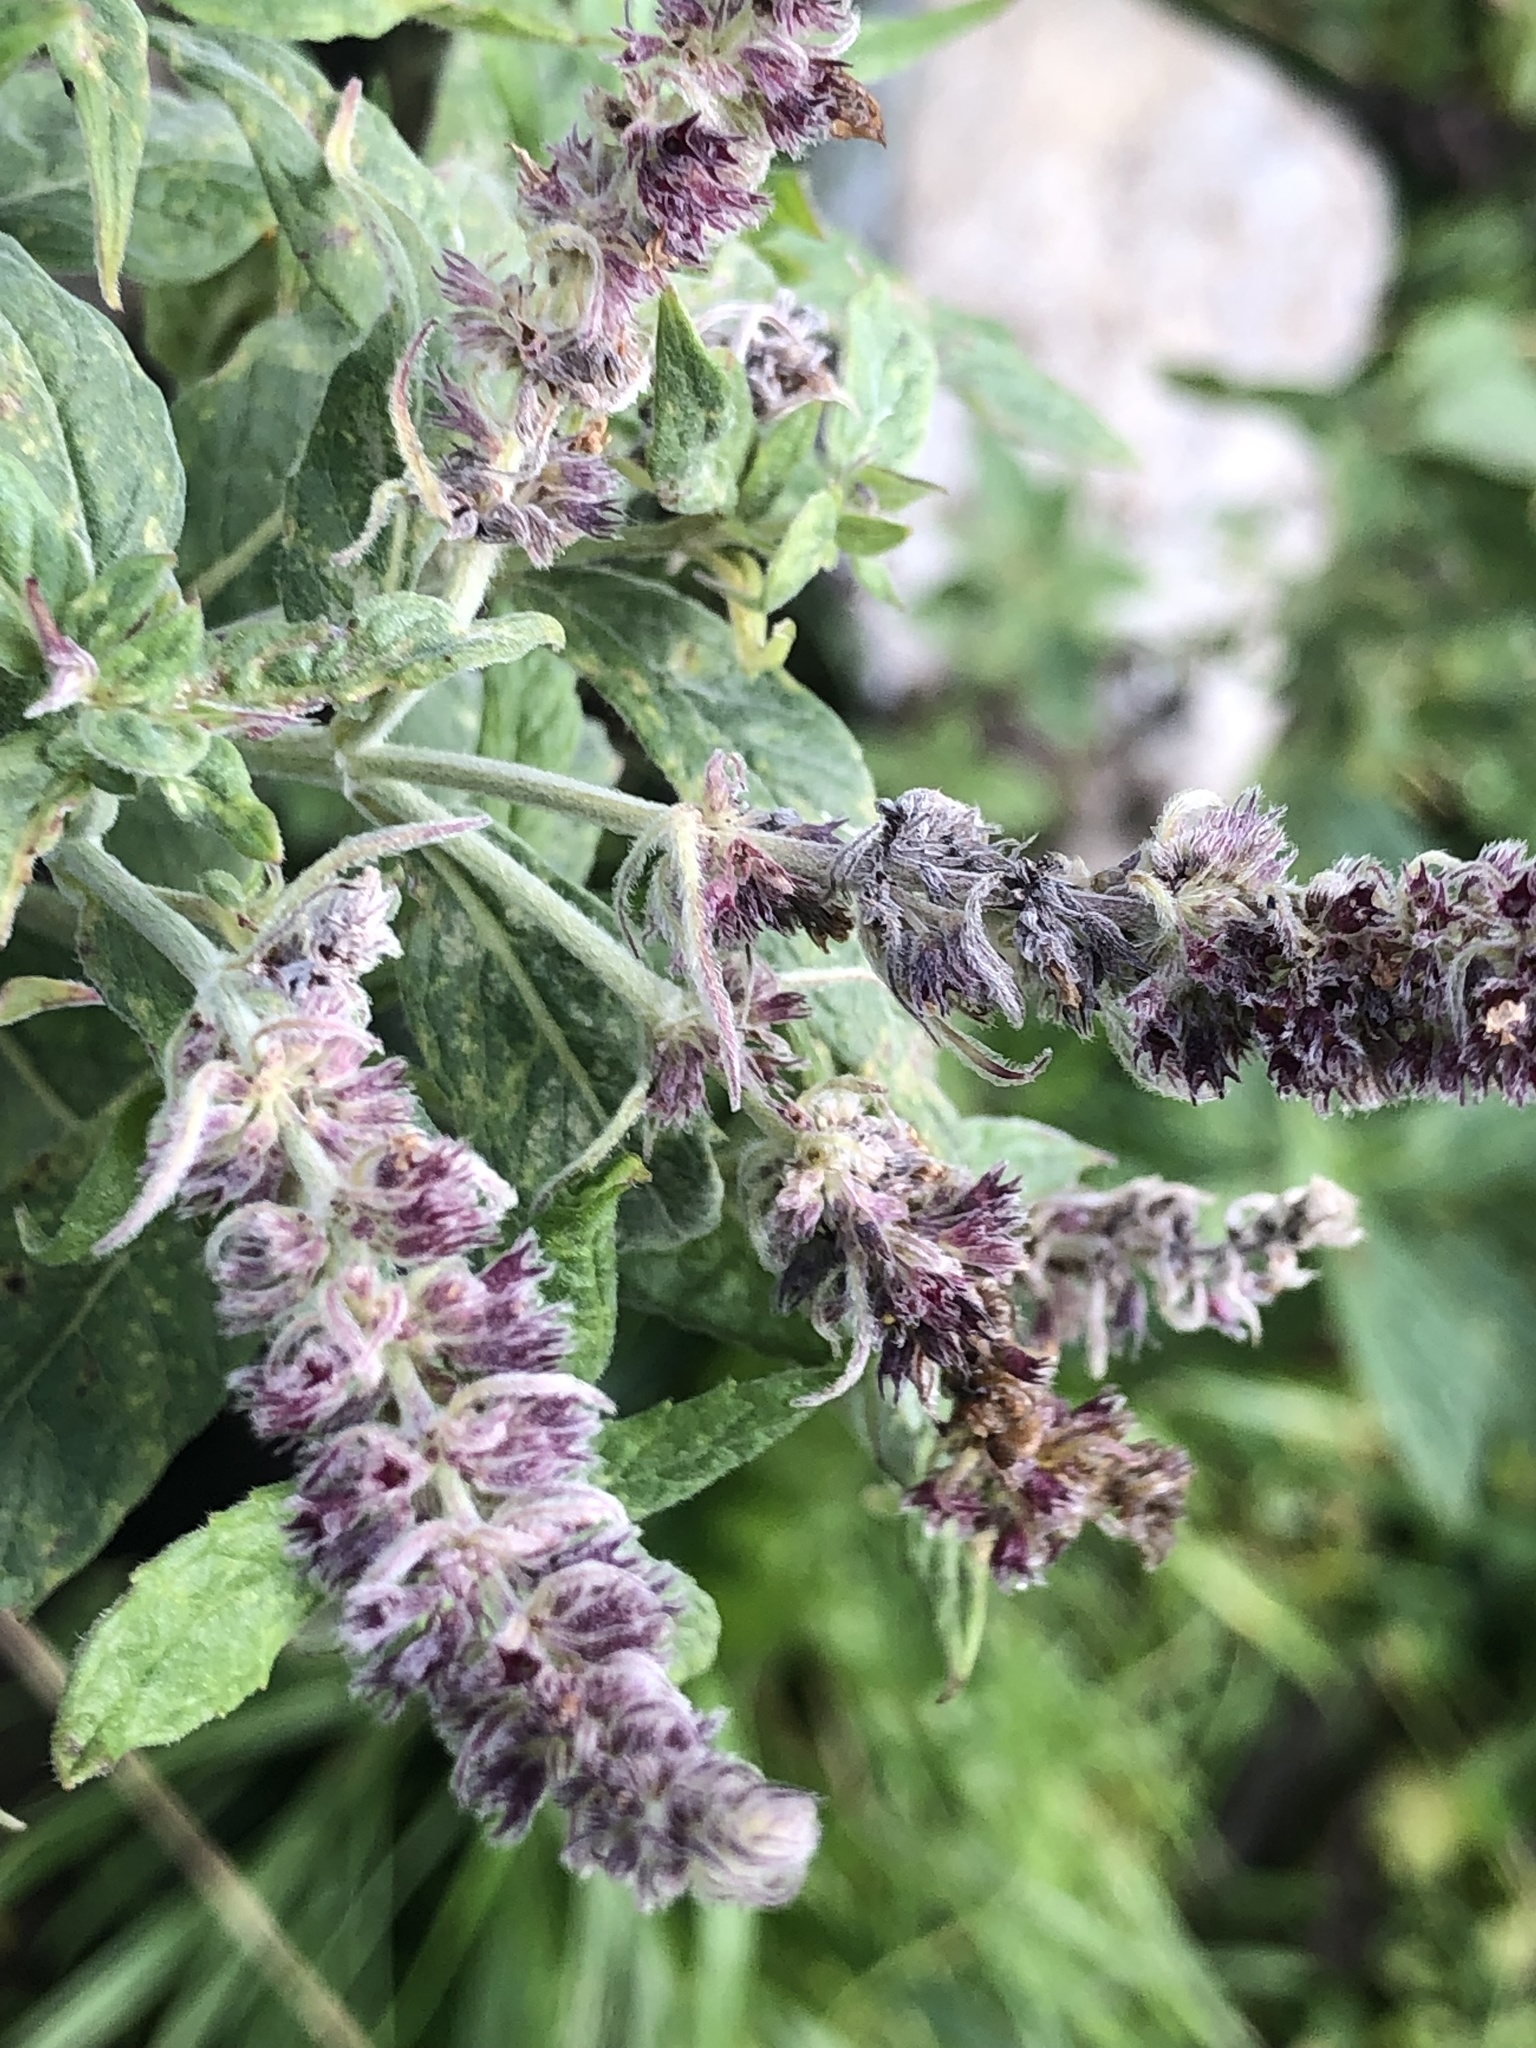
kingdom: Plantae
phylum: Tracheophyta
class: Magnoliopsida
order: Lamiales
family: Lamiaceae
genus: Mentha
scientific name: Mentha longifolia
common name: Horse mint
